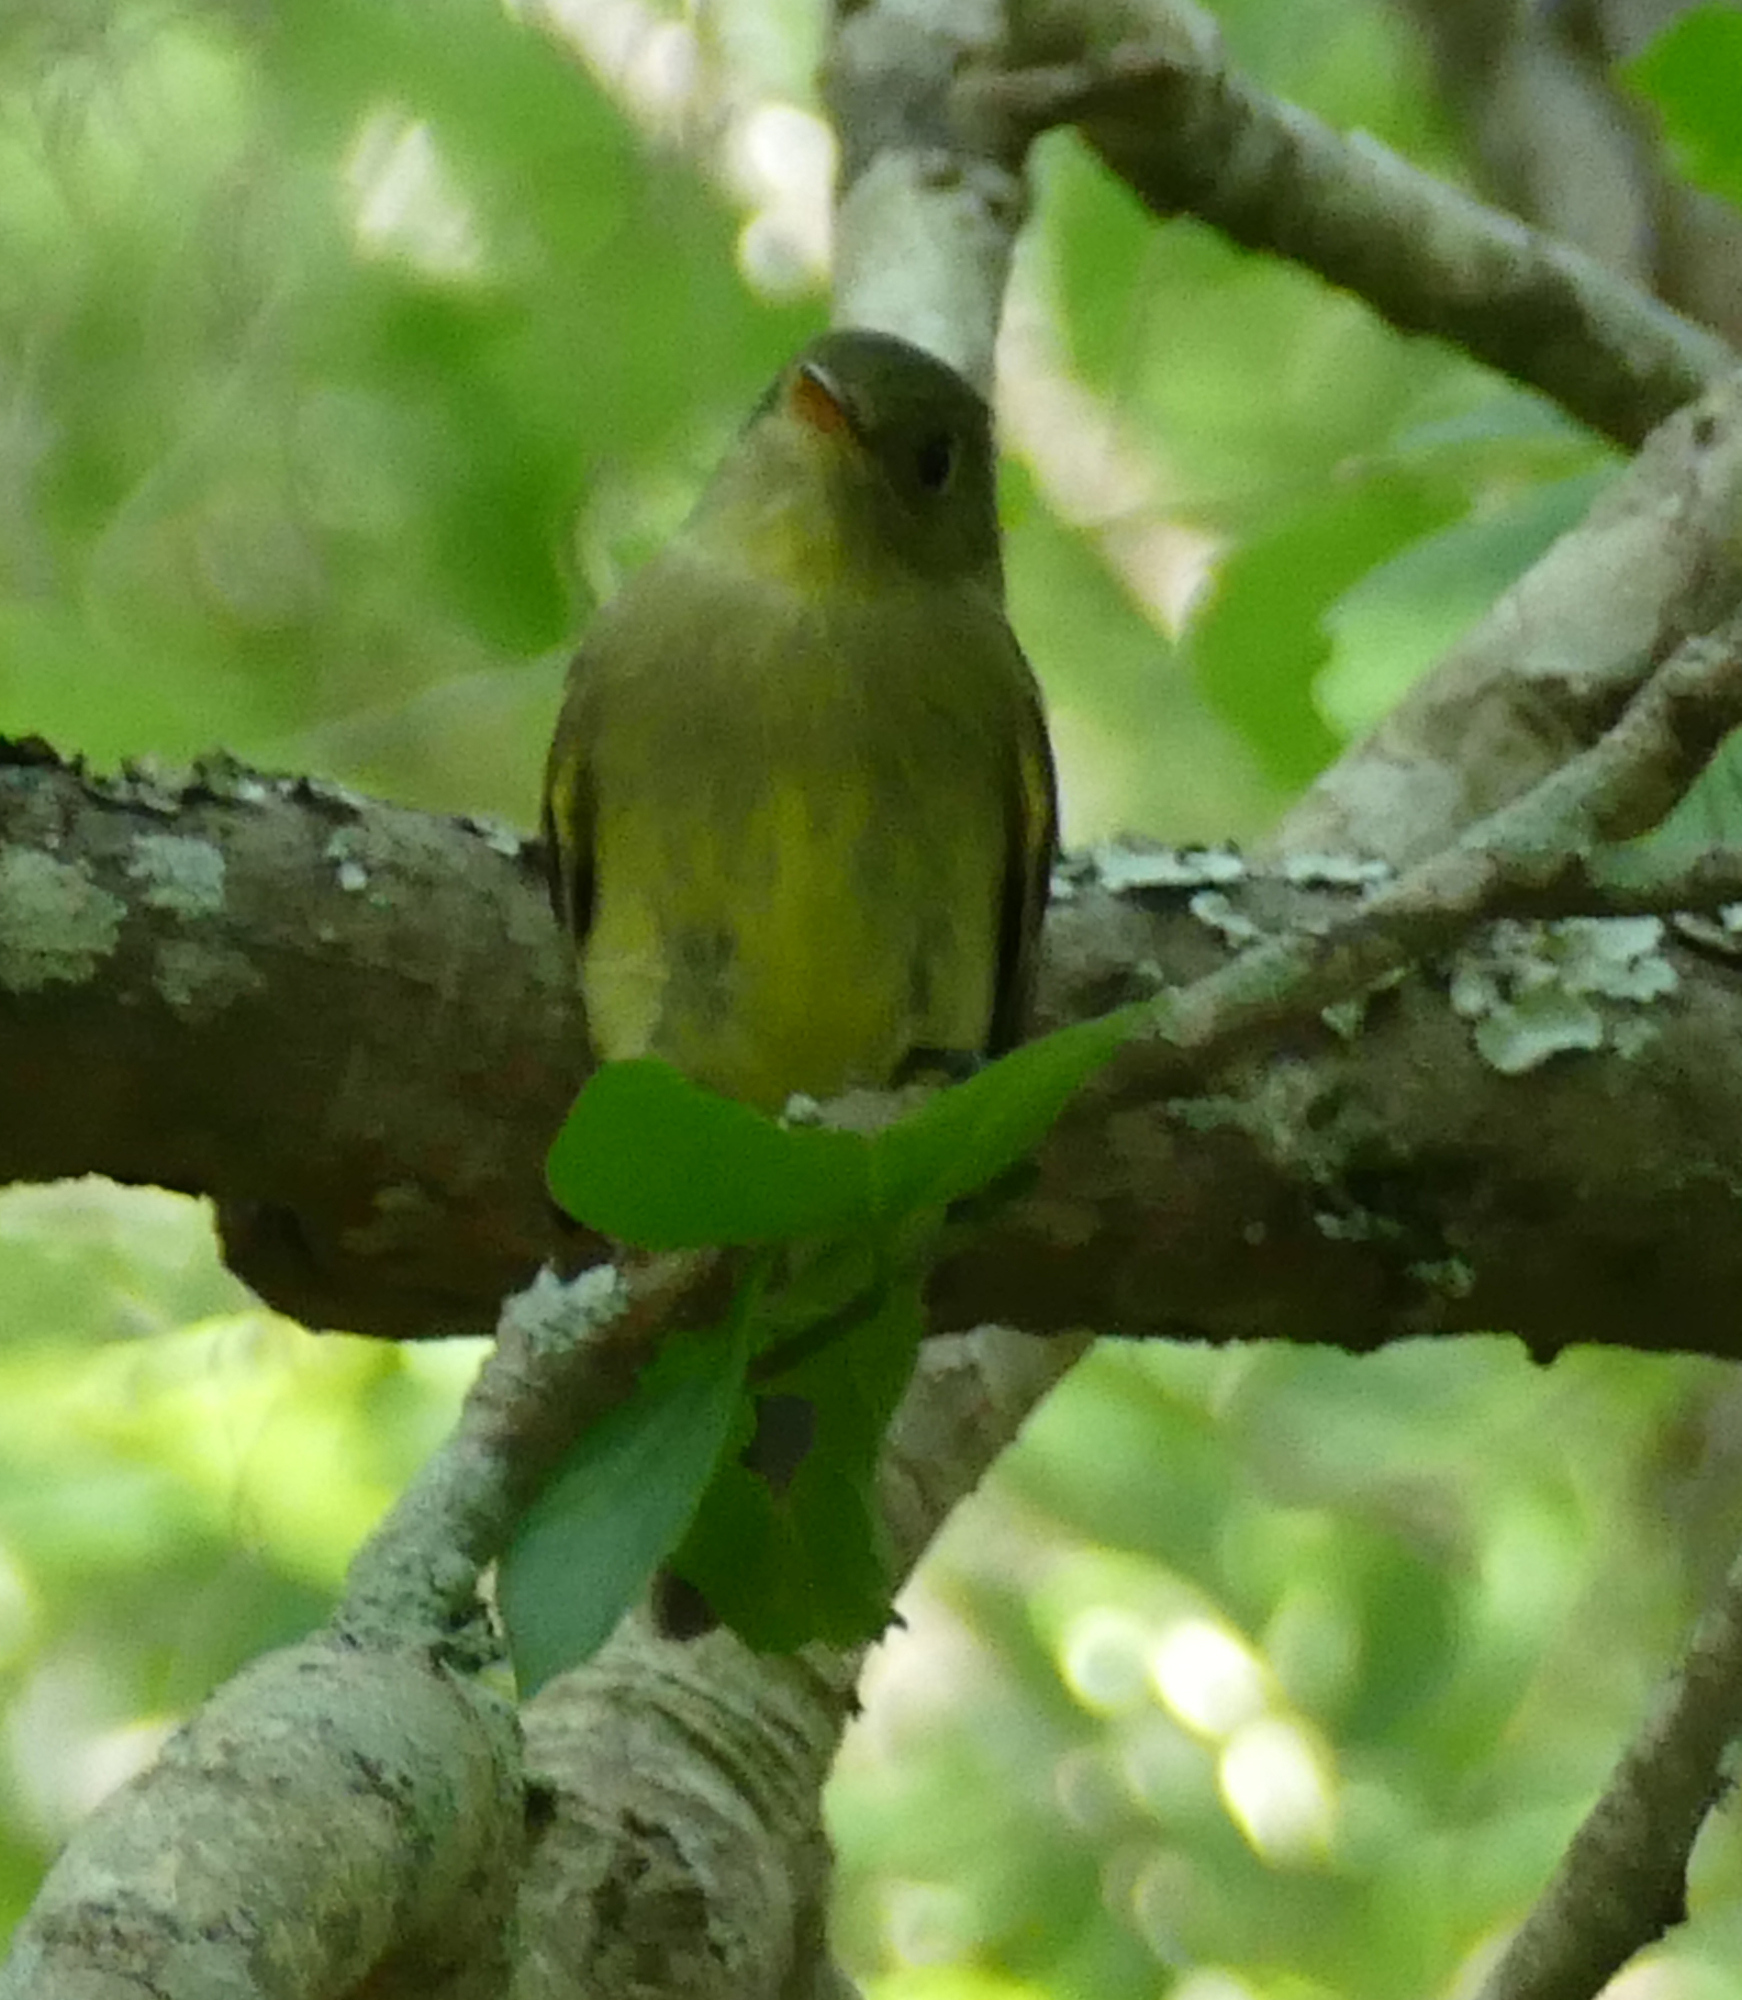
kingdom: Animalia
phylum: Chordata
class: Aves
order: Passeriformes
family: Tyrannidae
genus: Empidonax
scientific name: Empidonax flaviventris
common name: Yellow-bellied flycatcher
